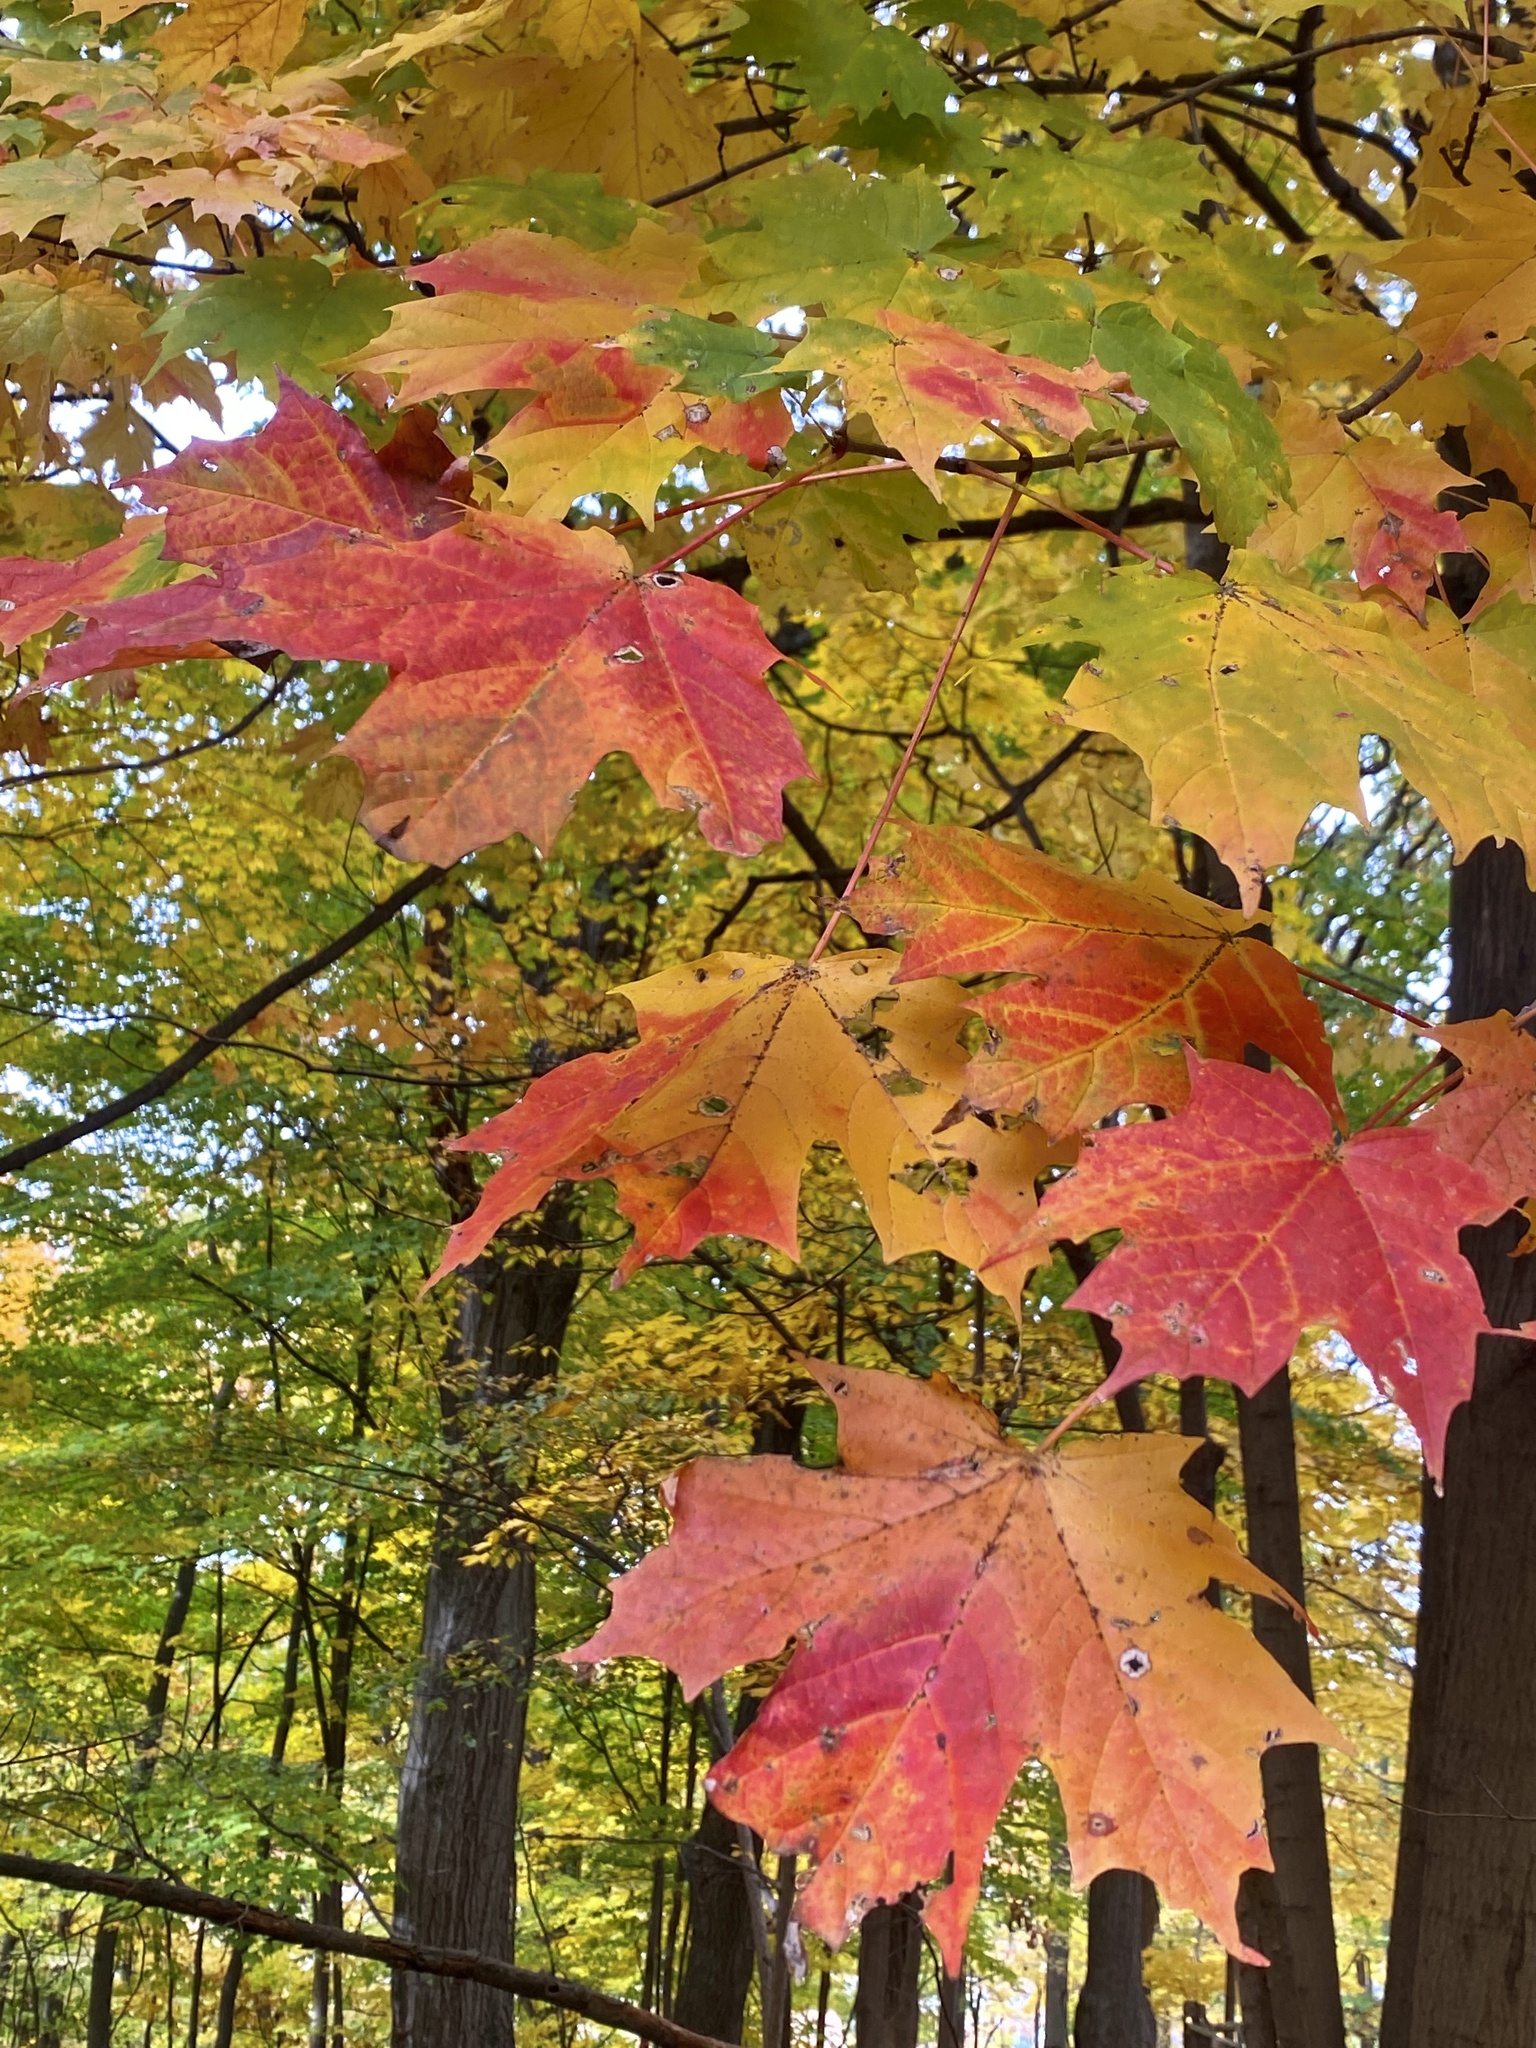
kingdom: Plantae
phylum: Tracheophyta
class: Magnoliopsida
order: Sapindales
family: Sapindaceae
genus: Acer
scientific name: Acer saccharum
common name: Sugar maple
